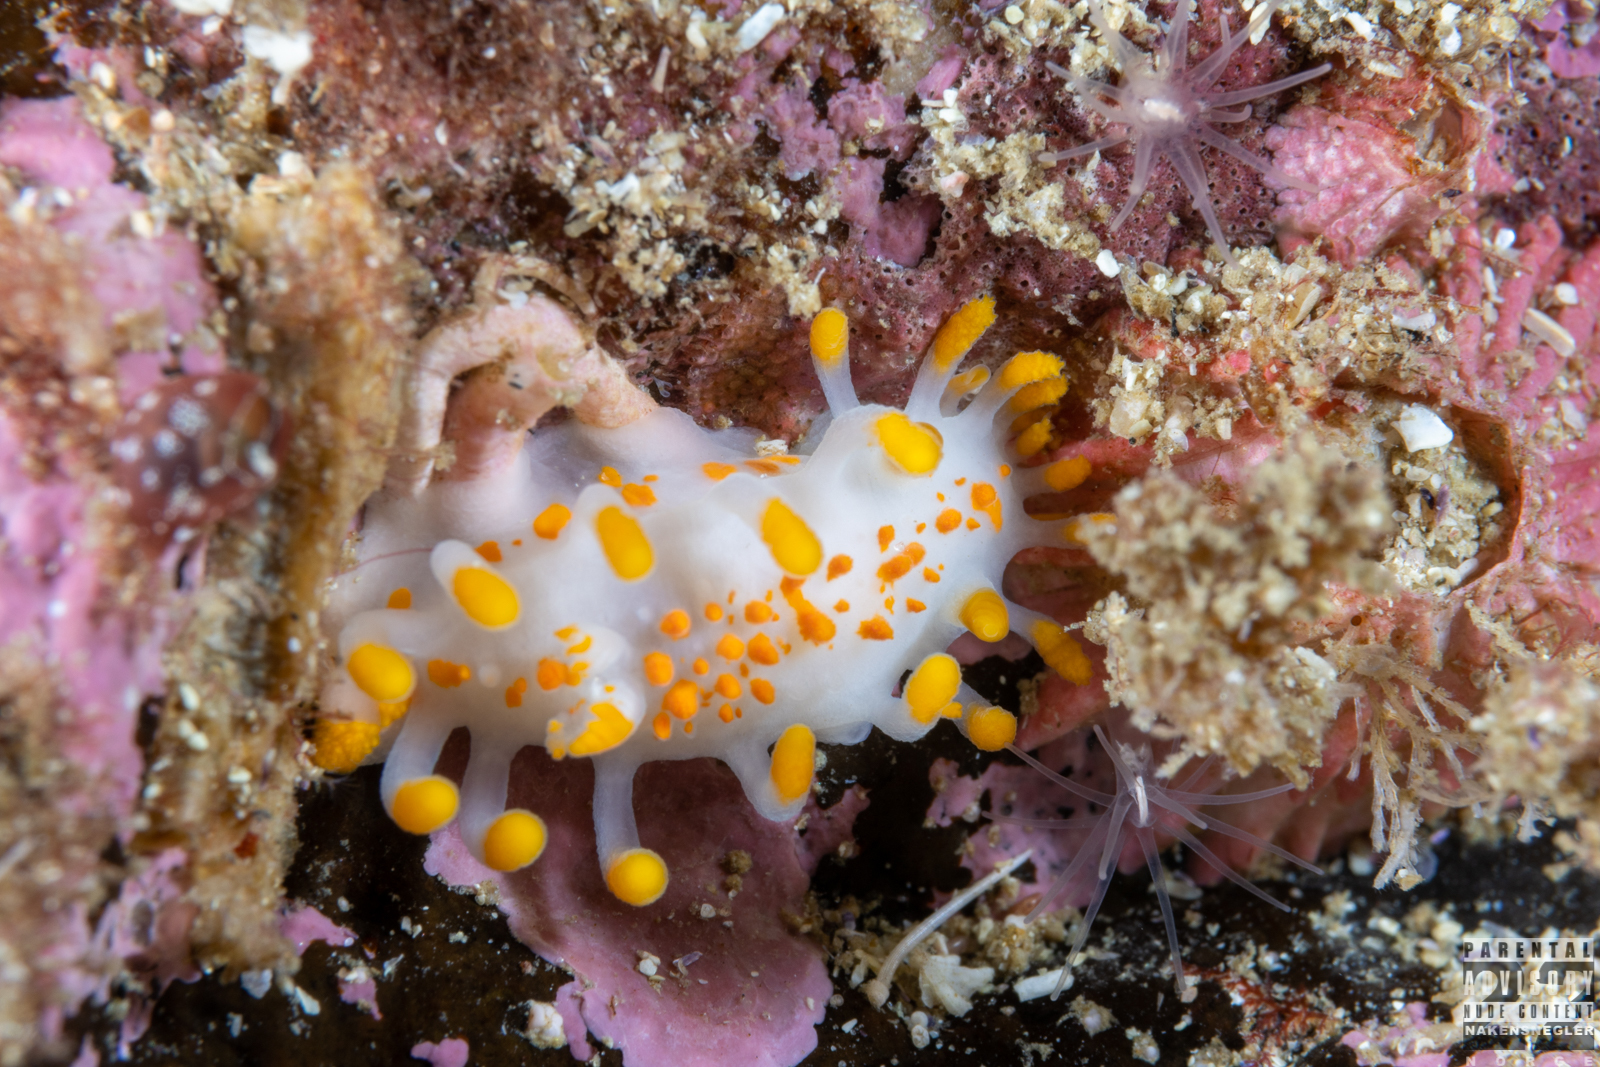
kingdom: Animalia
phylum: Mollusca
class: Gastropoda
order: Nudibranchia
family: Polyceridae
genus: Limacia
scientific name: Limacia clavigera
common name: Orange-clubbed sea slug
